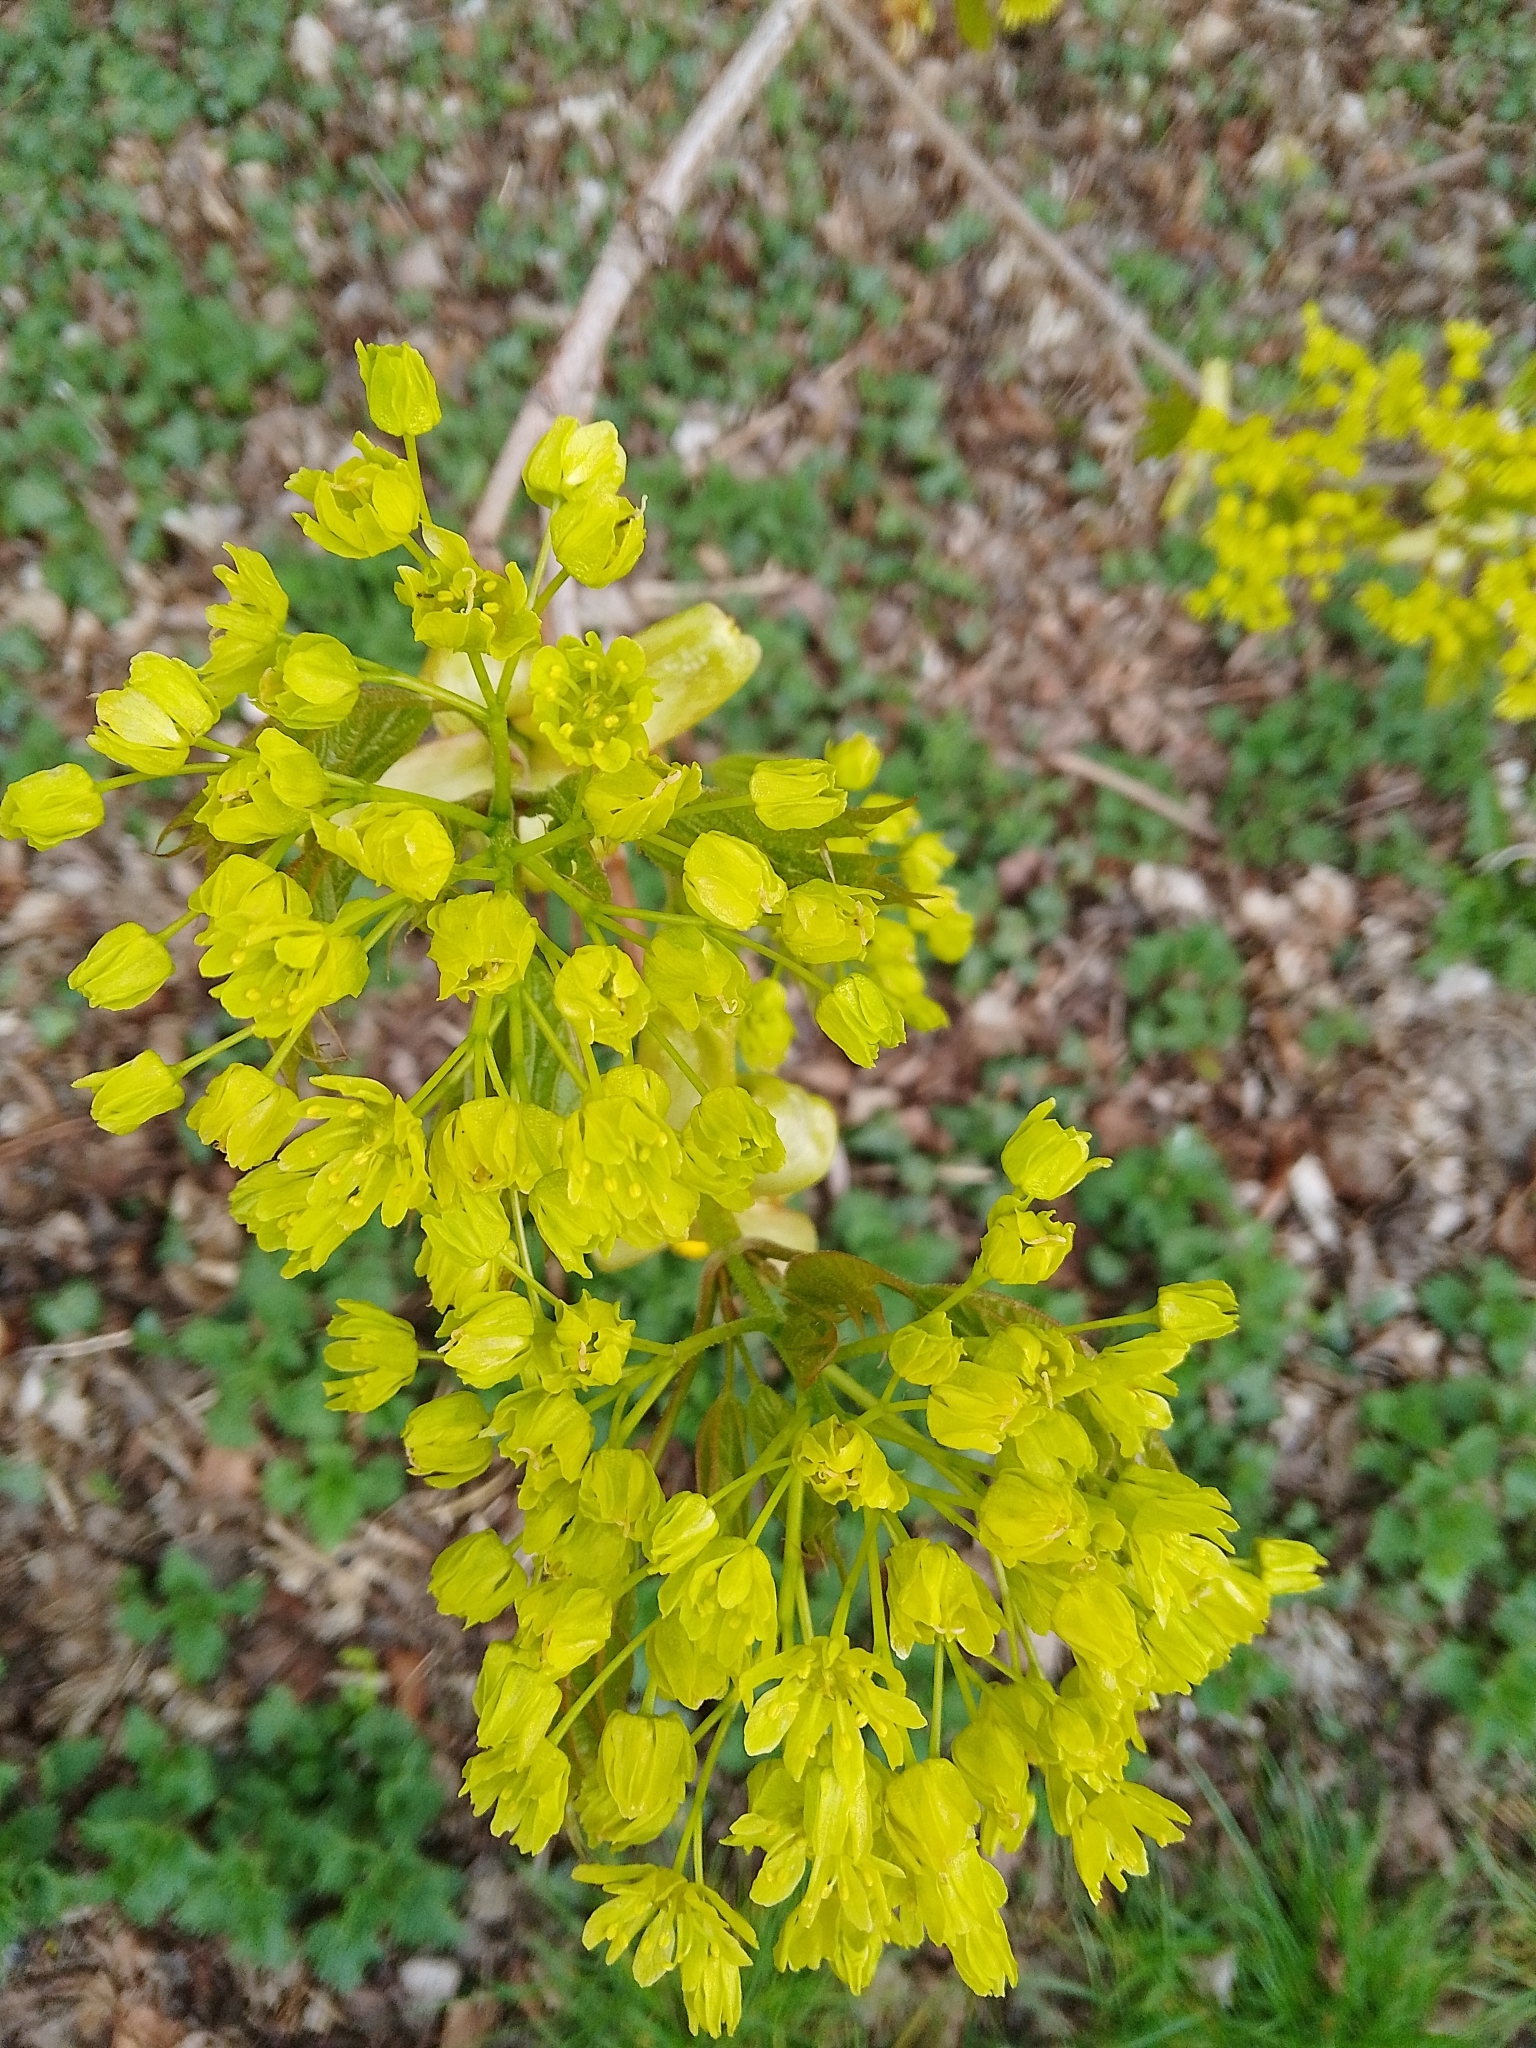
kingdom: Plantae
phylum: Tracheophyta
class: Magnoliopsida
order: Sapindales
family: Sapindaceae
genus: Acer
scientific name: Acer platanoides
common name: Norway maple
